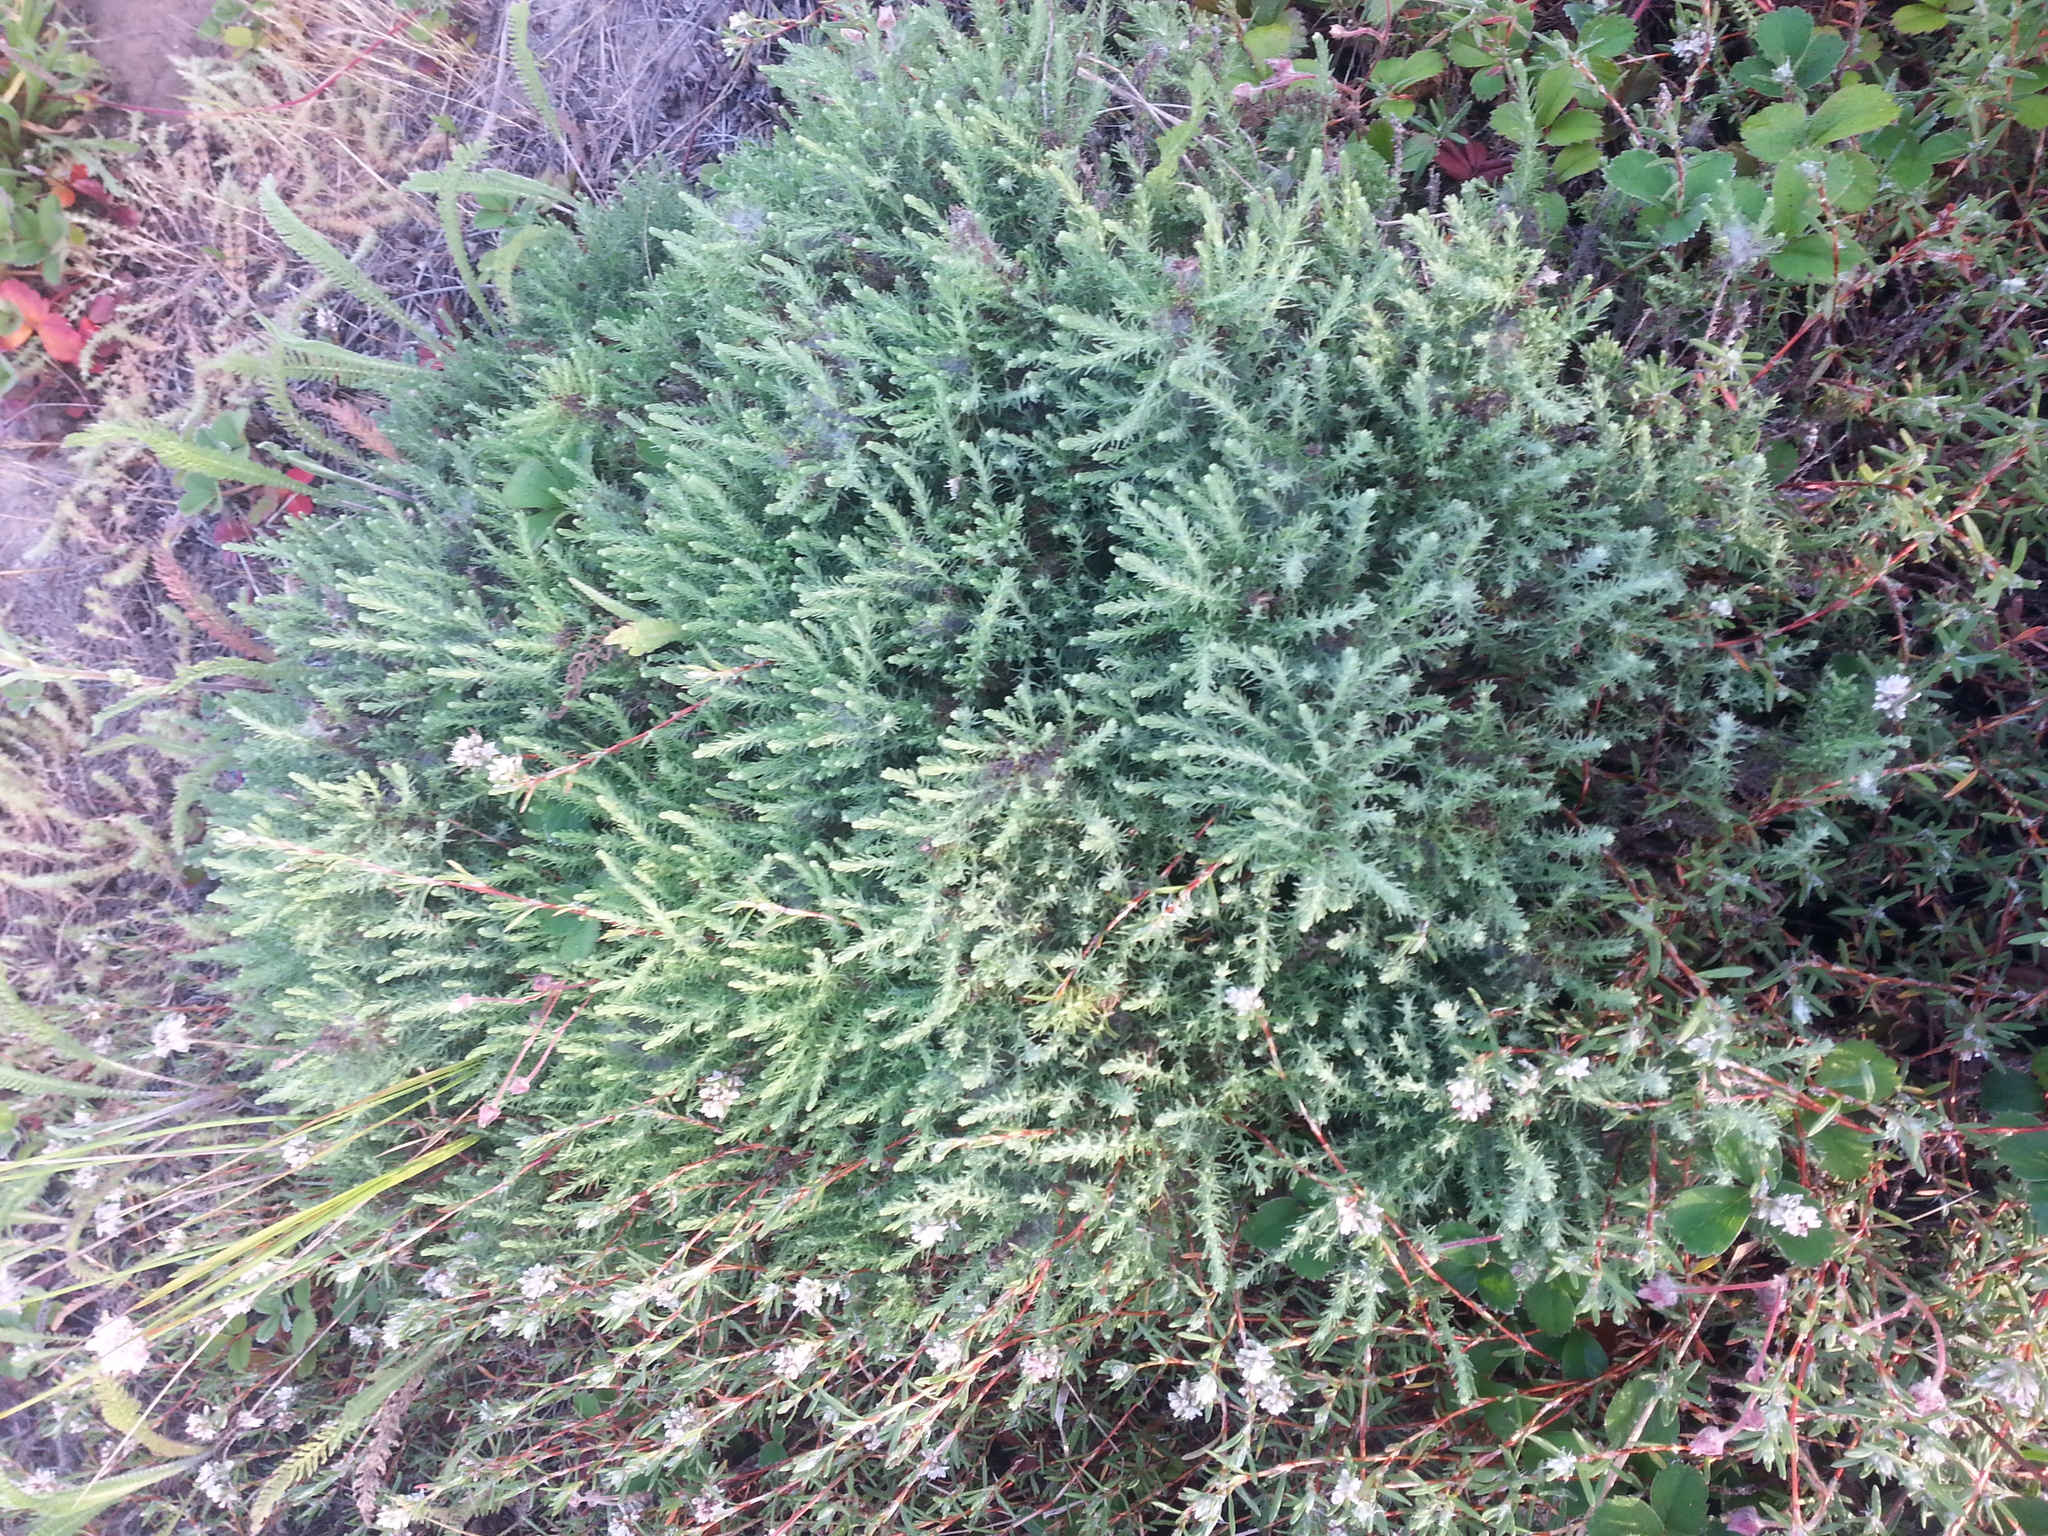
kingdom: Plantae
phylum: Tracheophyta
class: Magnoliopsida
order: Asterales
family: Asteraceae
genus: Ericameria
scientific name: Ericameria ericoides
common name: California goldenbush
